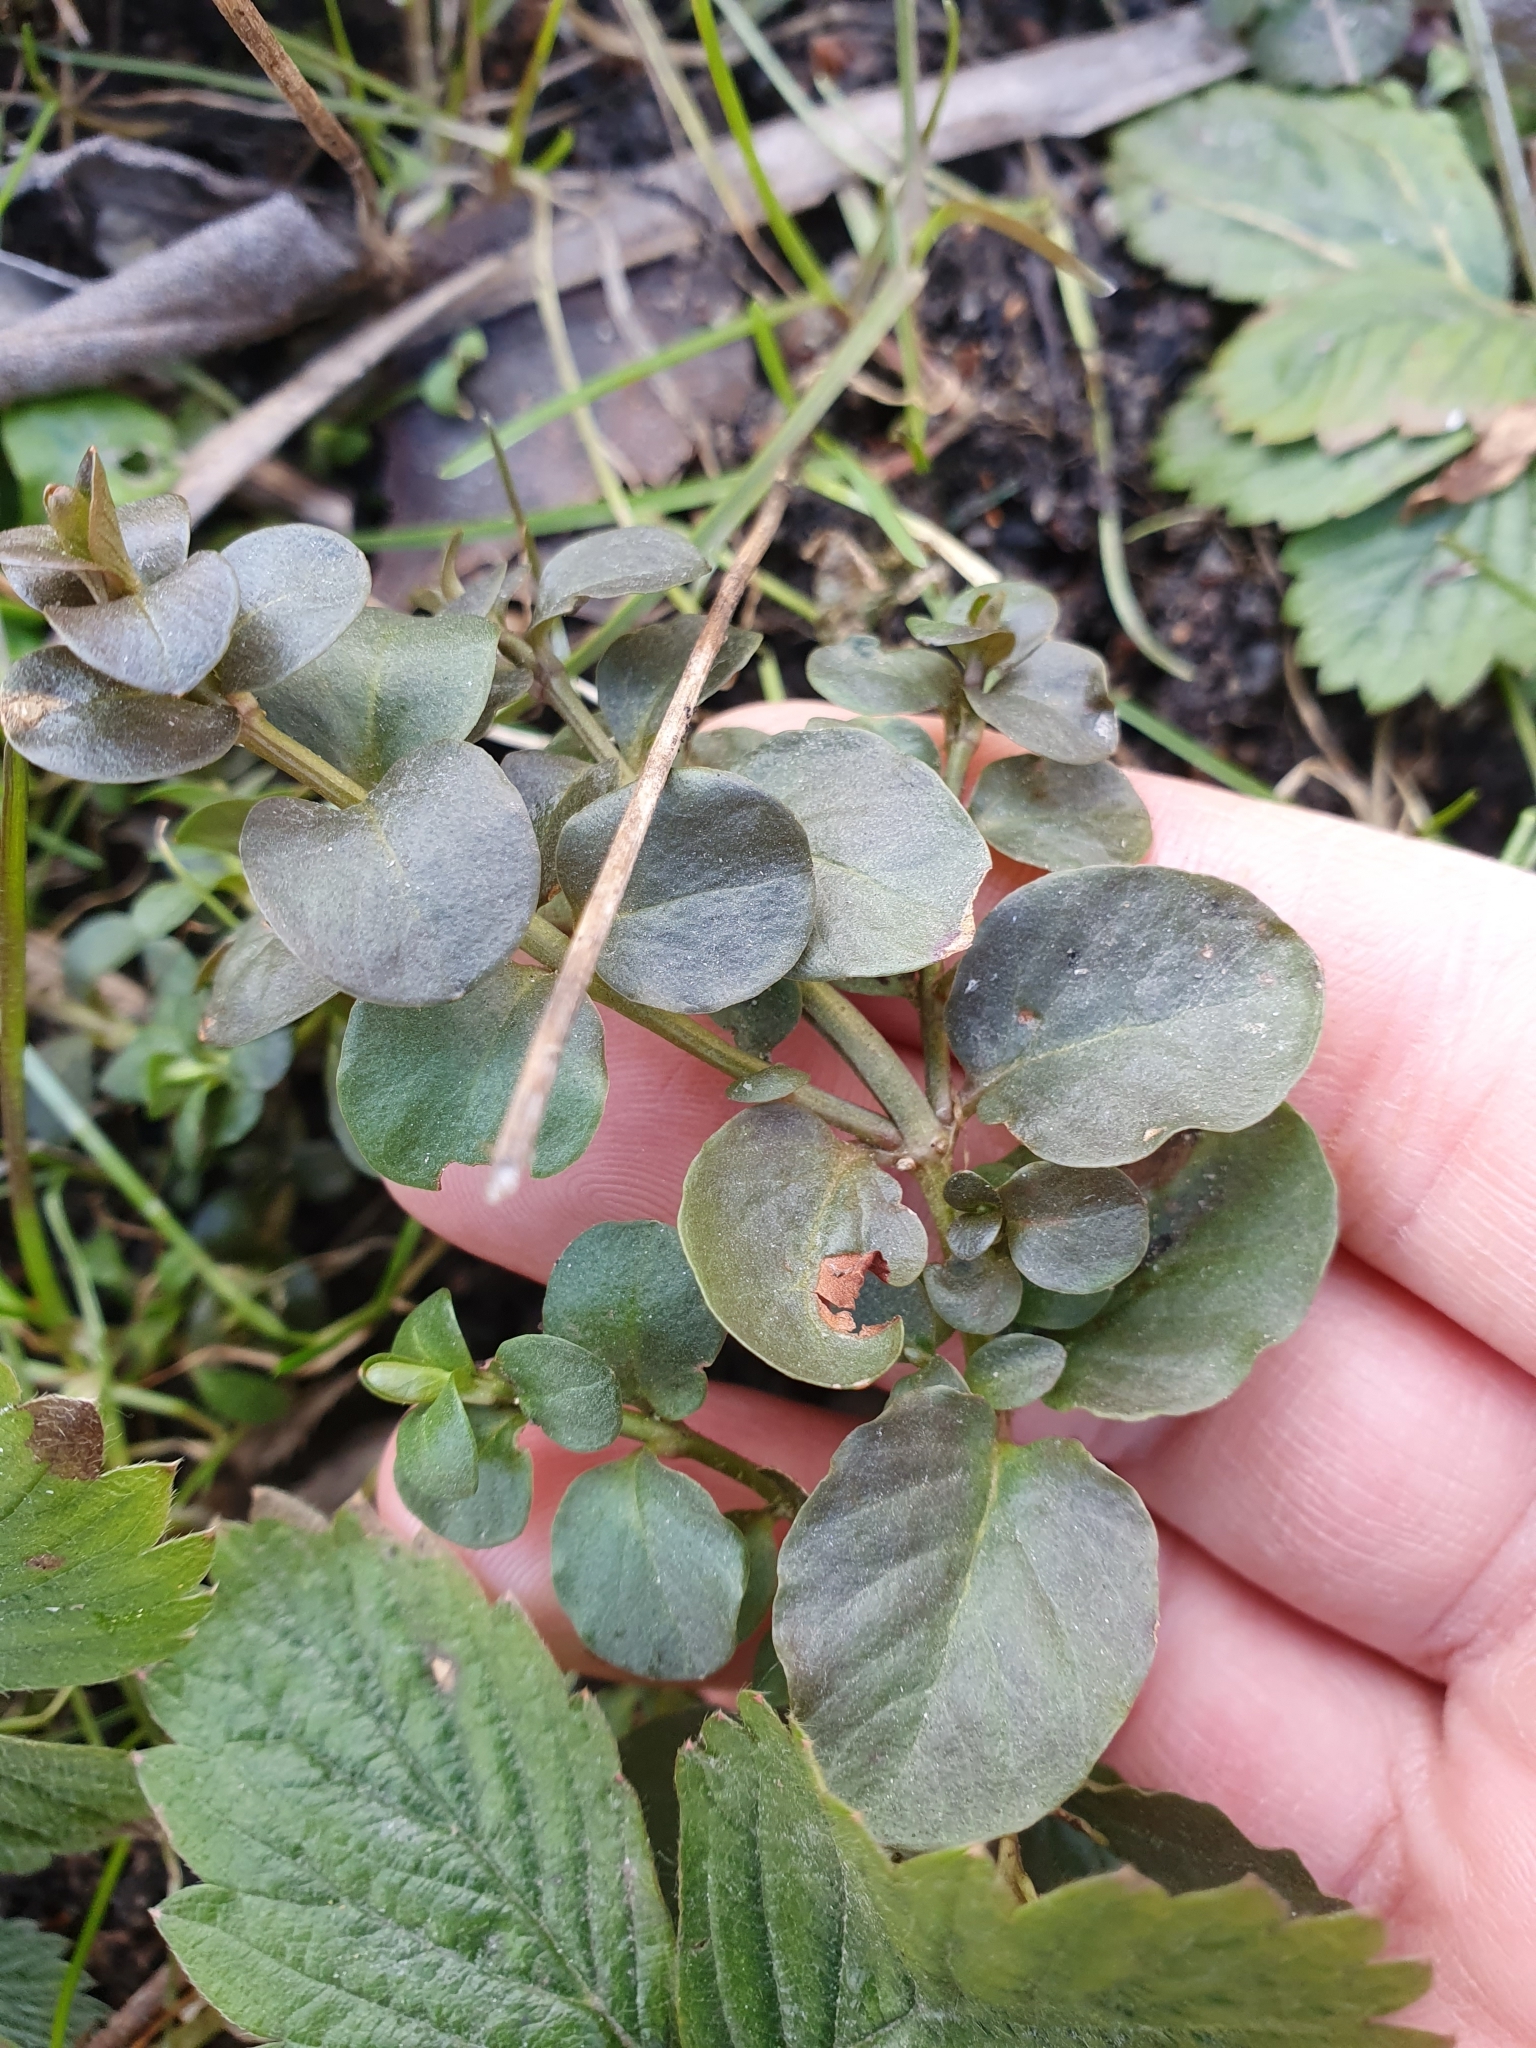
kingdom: Plantae
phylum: Tracheophyta
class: Magnoliopsida
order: Ericales
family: Primulaceae
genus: Lysimachia
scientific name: Lysimachia nummularia
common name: Moneywort
